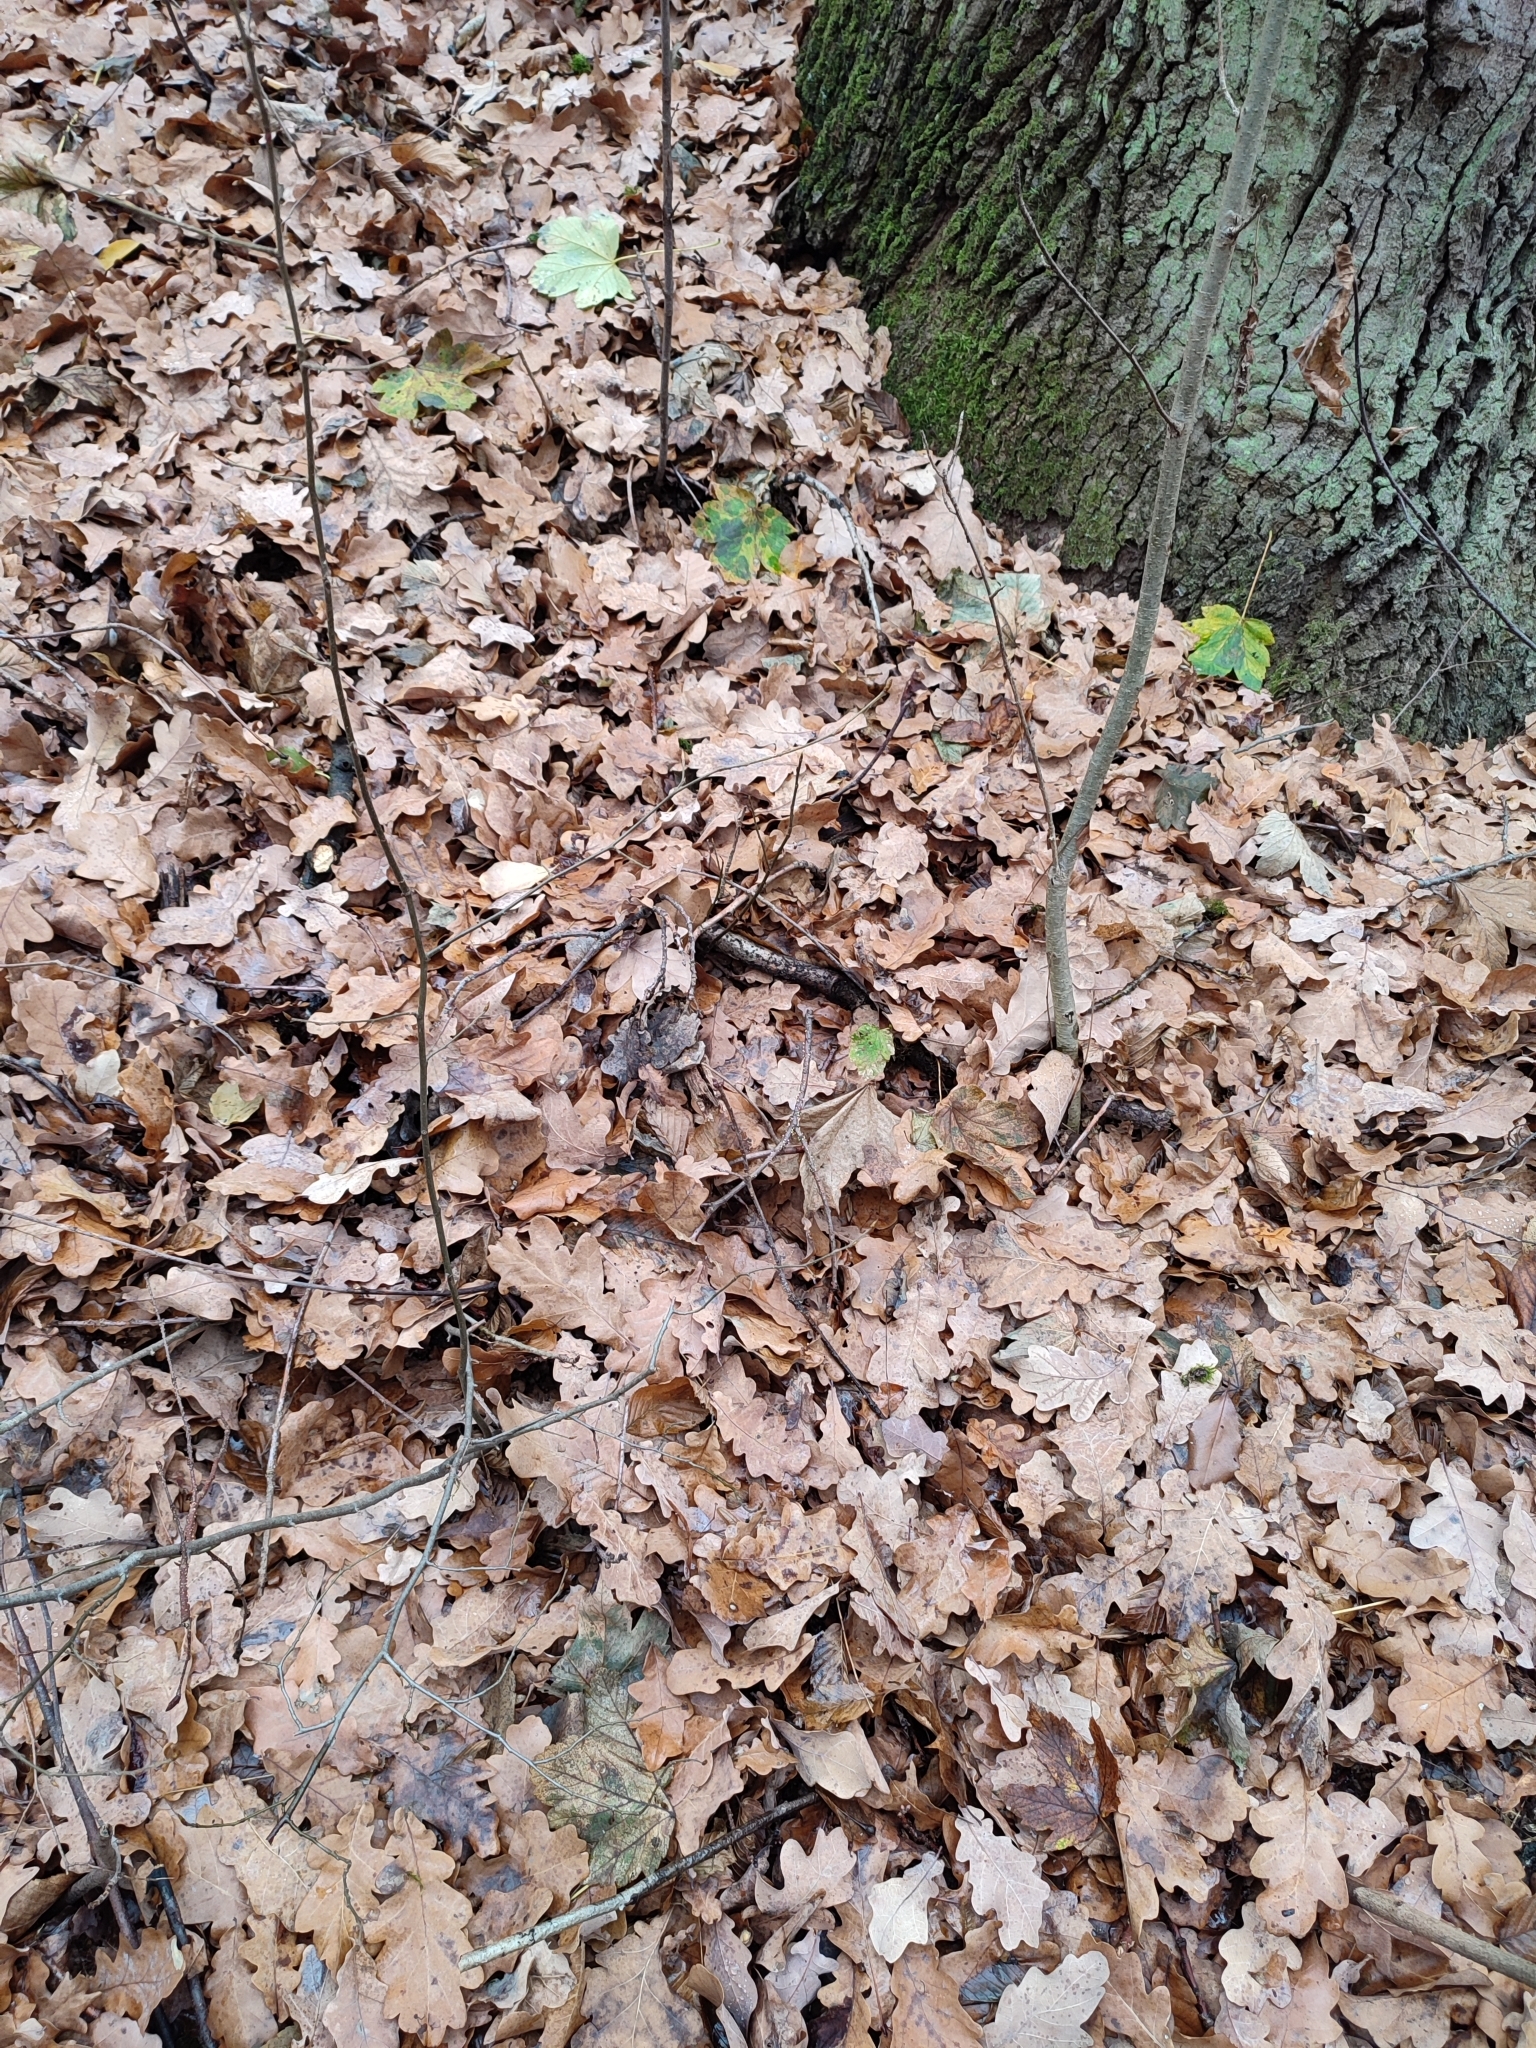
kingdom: Plantae
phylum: Tracheophyta
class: Magnoliopsida
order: Fagales
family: Fagaceae
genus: Quercus
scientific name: Quercus robur
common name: Pedunculate oak
